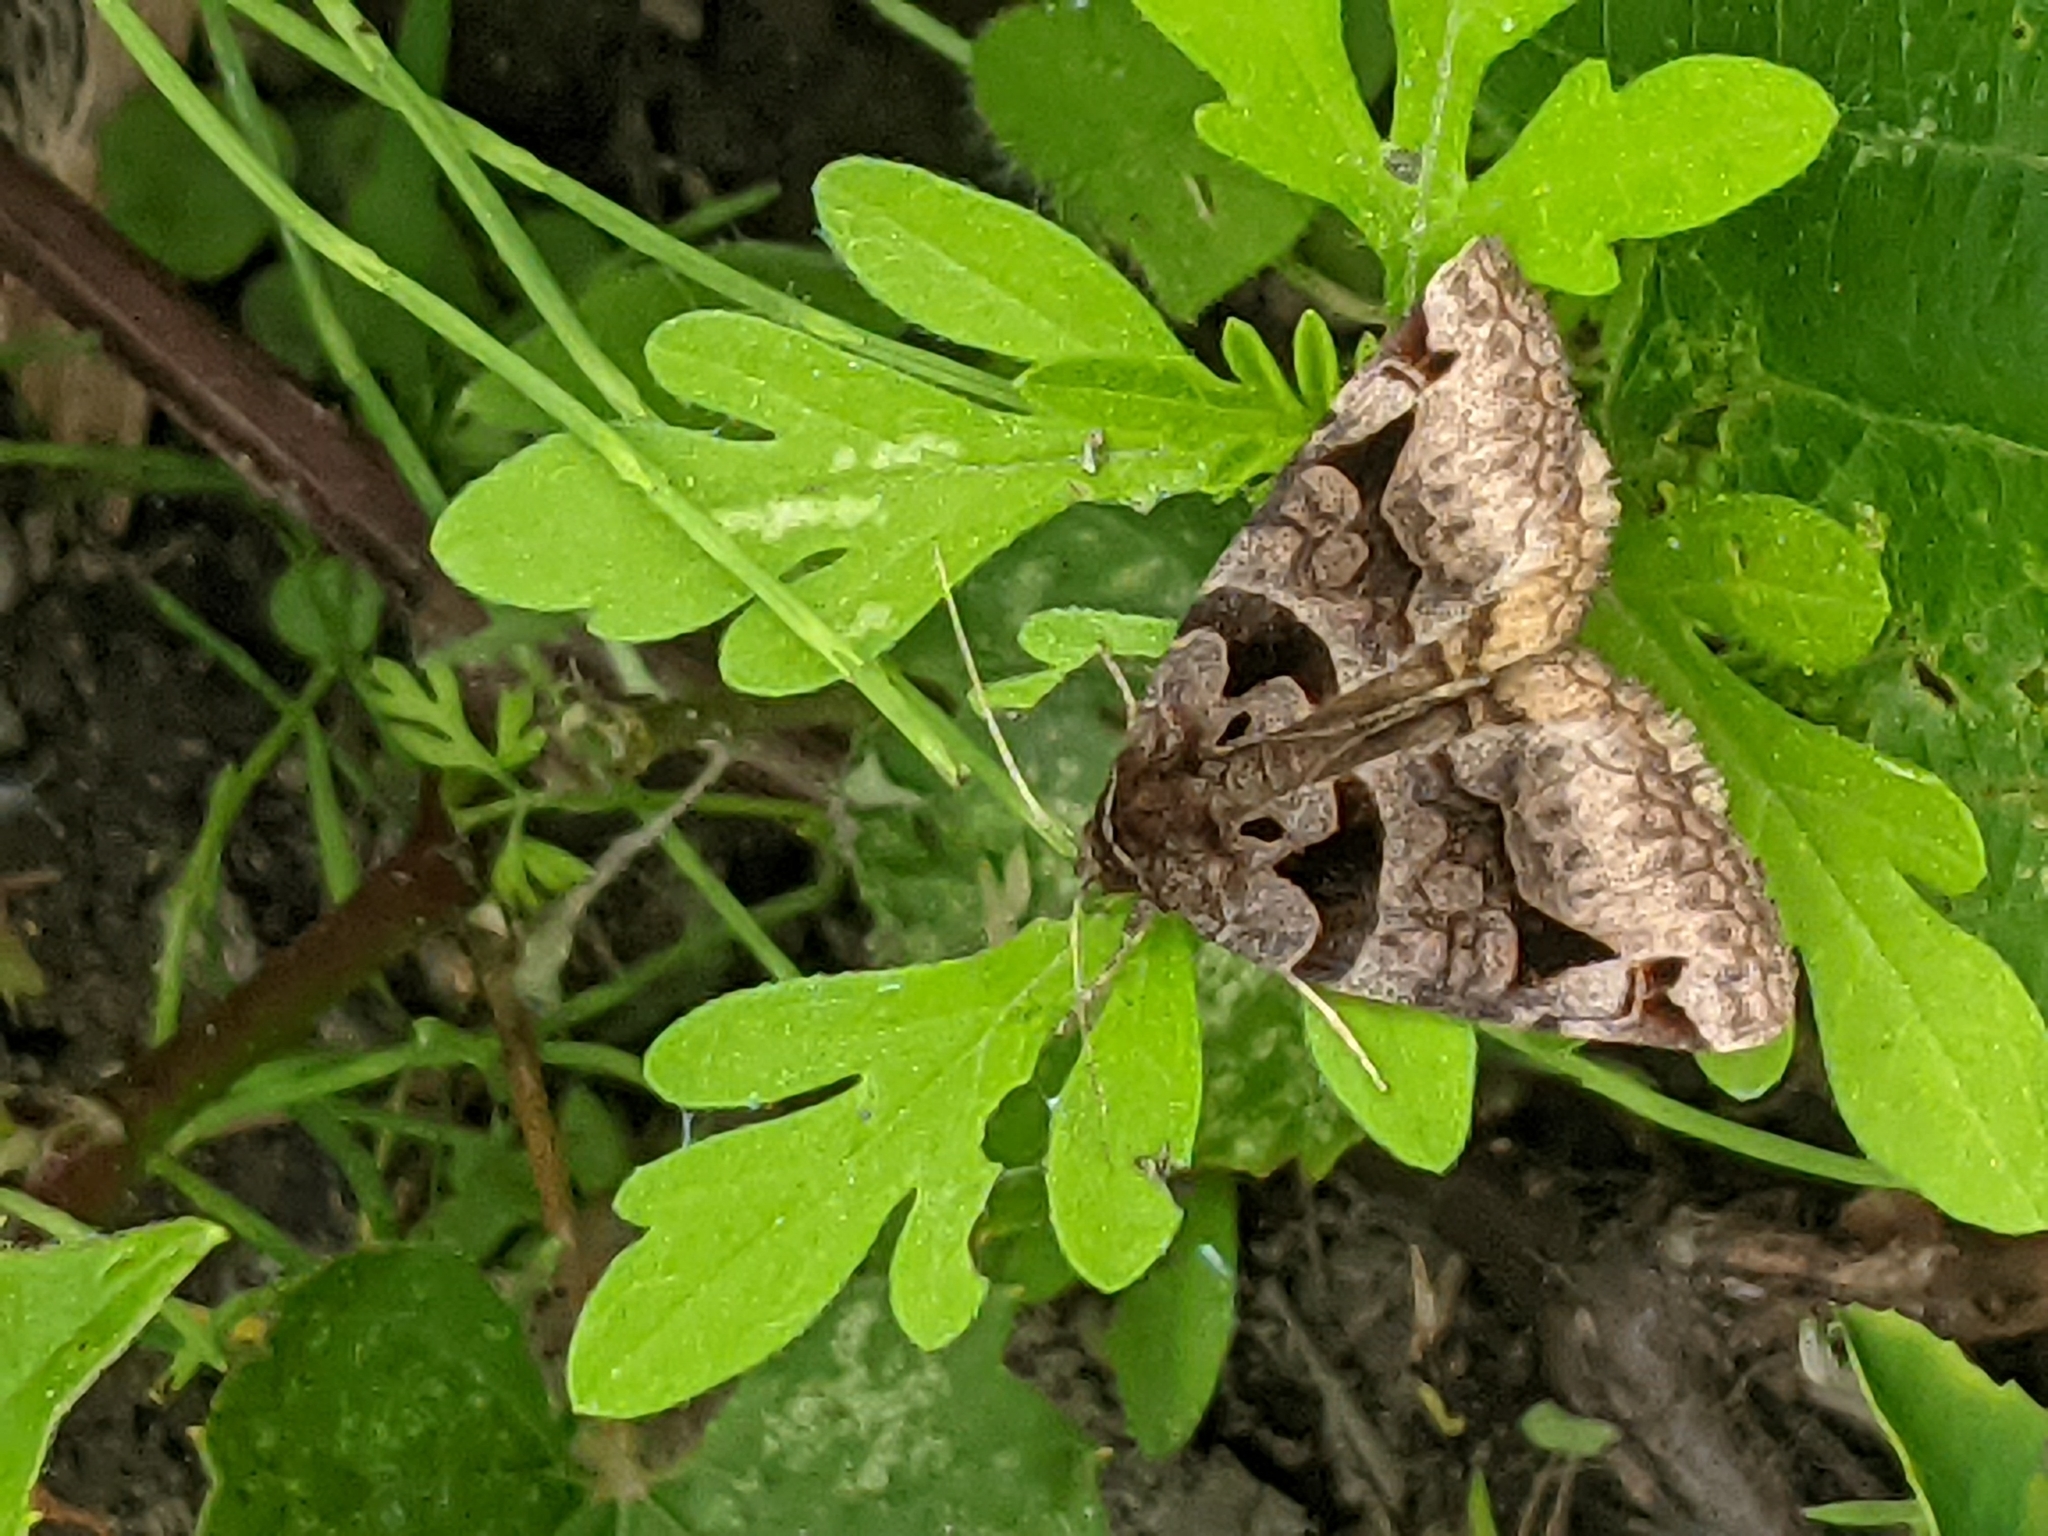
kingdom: Animalia
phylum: Arthropoda
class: Insecta
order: Lepidoptera
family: Erebidae
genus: Euclidia
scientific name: Euclidia cuspidea
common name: Toothed somberwing
